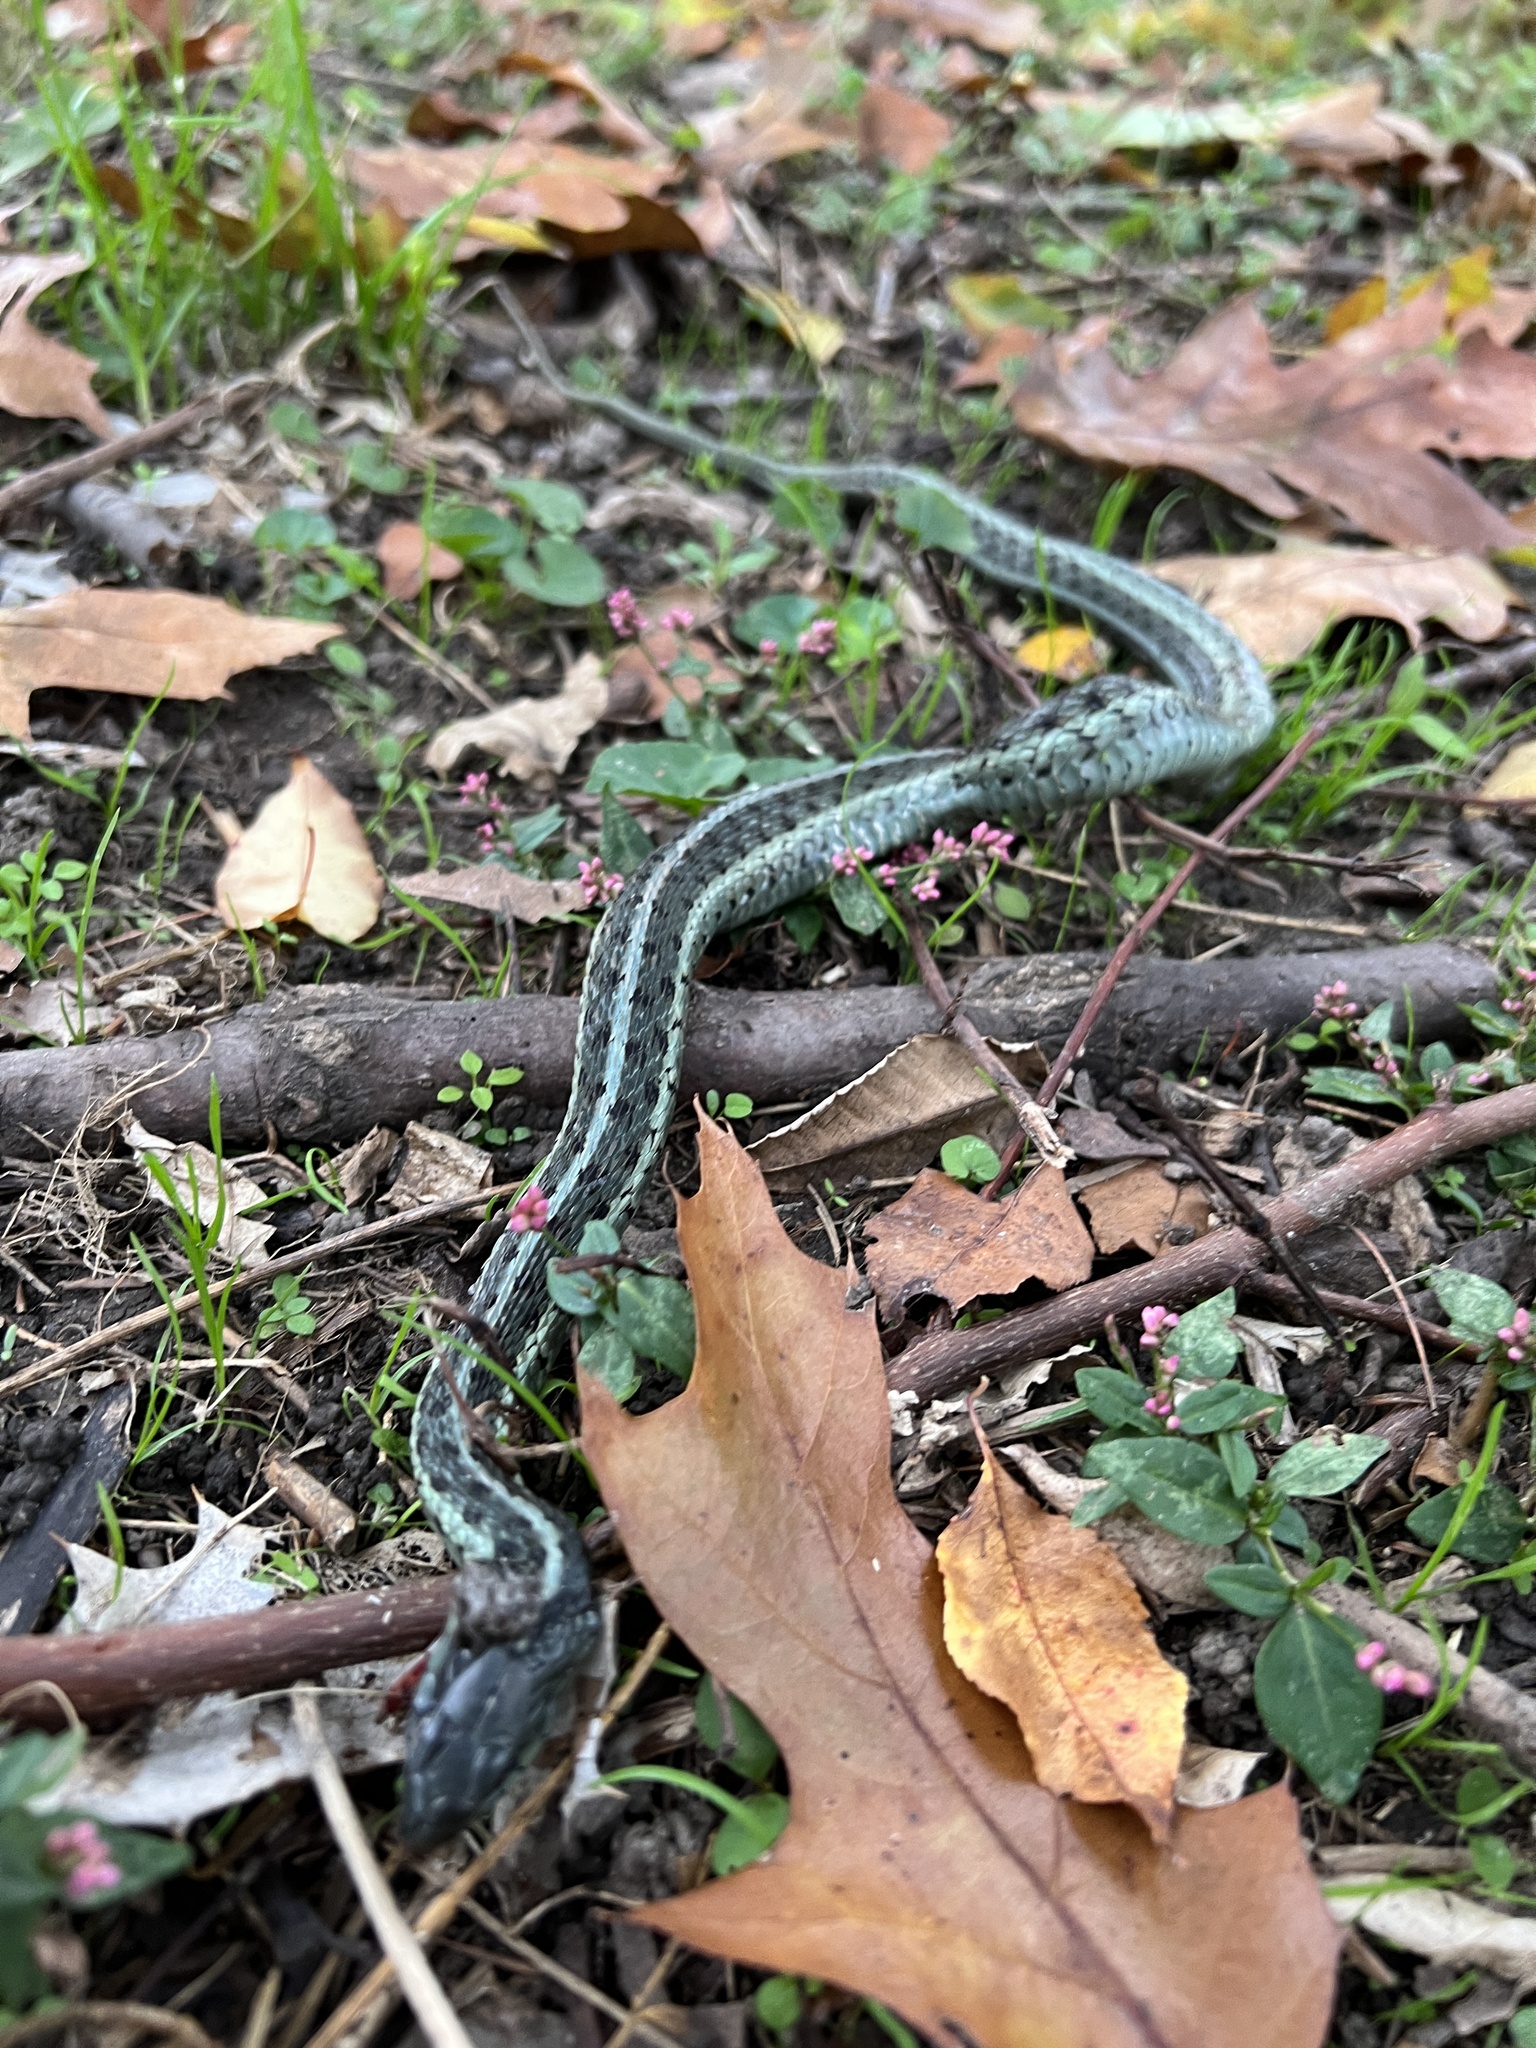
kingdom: Animalia
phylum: Chordata
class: Squamata
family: Colubridae
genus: Thamnophis
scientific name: Thamnophis sirtalis
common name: Common garter snake
